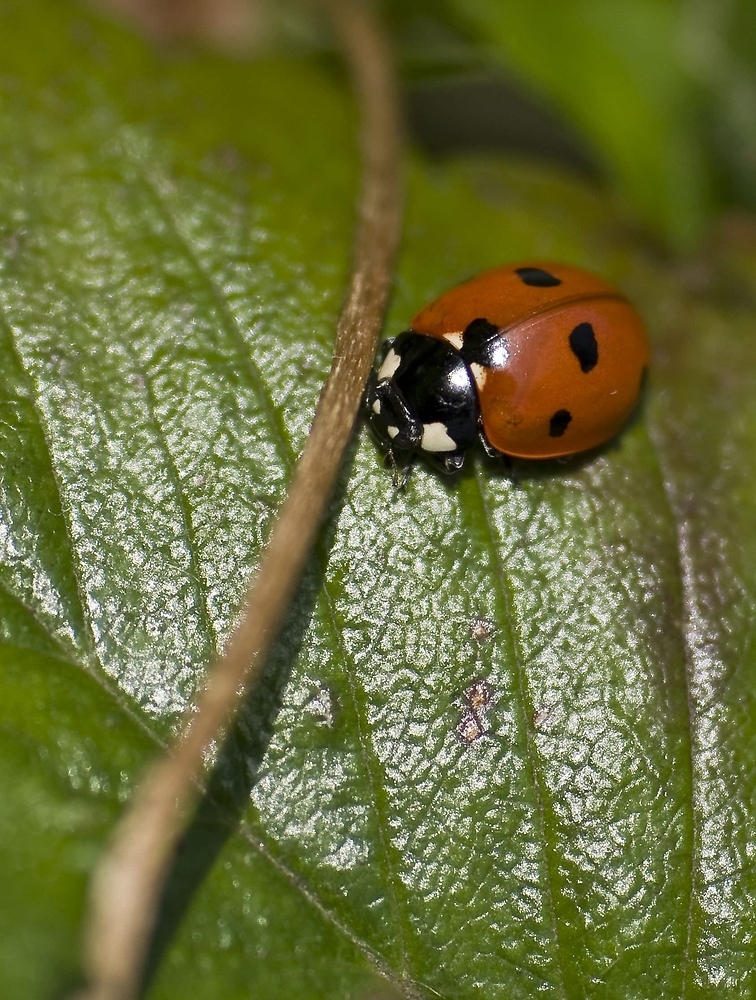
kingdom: Animalia
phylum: Arthropoda
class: Insecta
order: Coleoptera
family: Coccinellidae
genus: Coccinella
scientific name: Coccinella septempunctata
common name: Sevenspotted lady beetle
